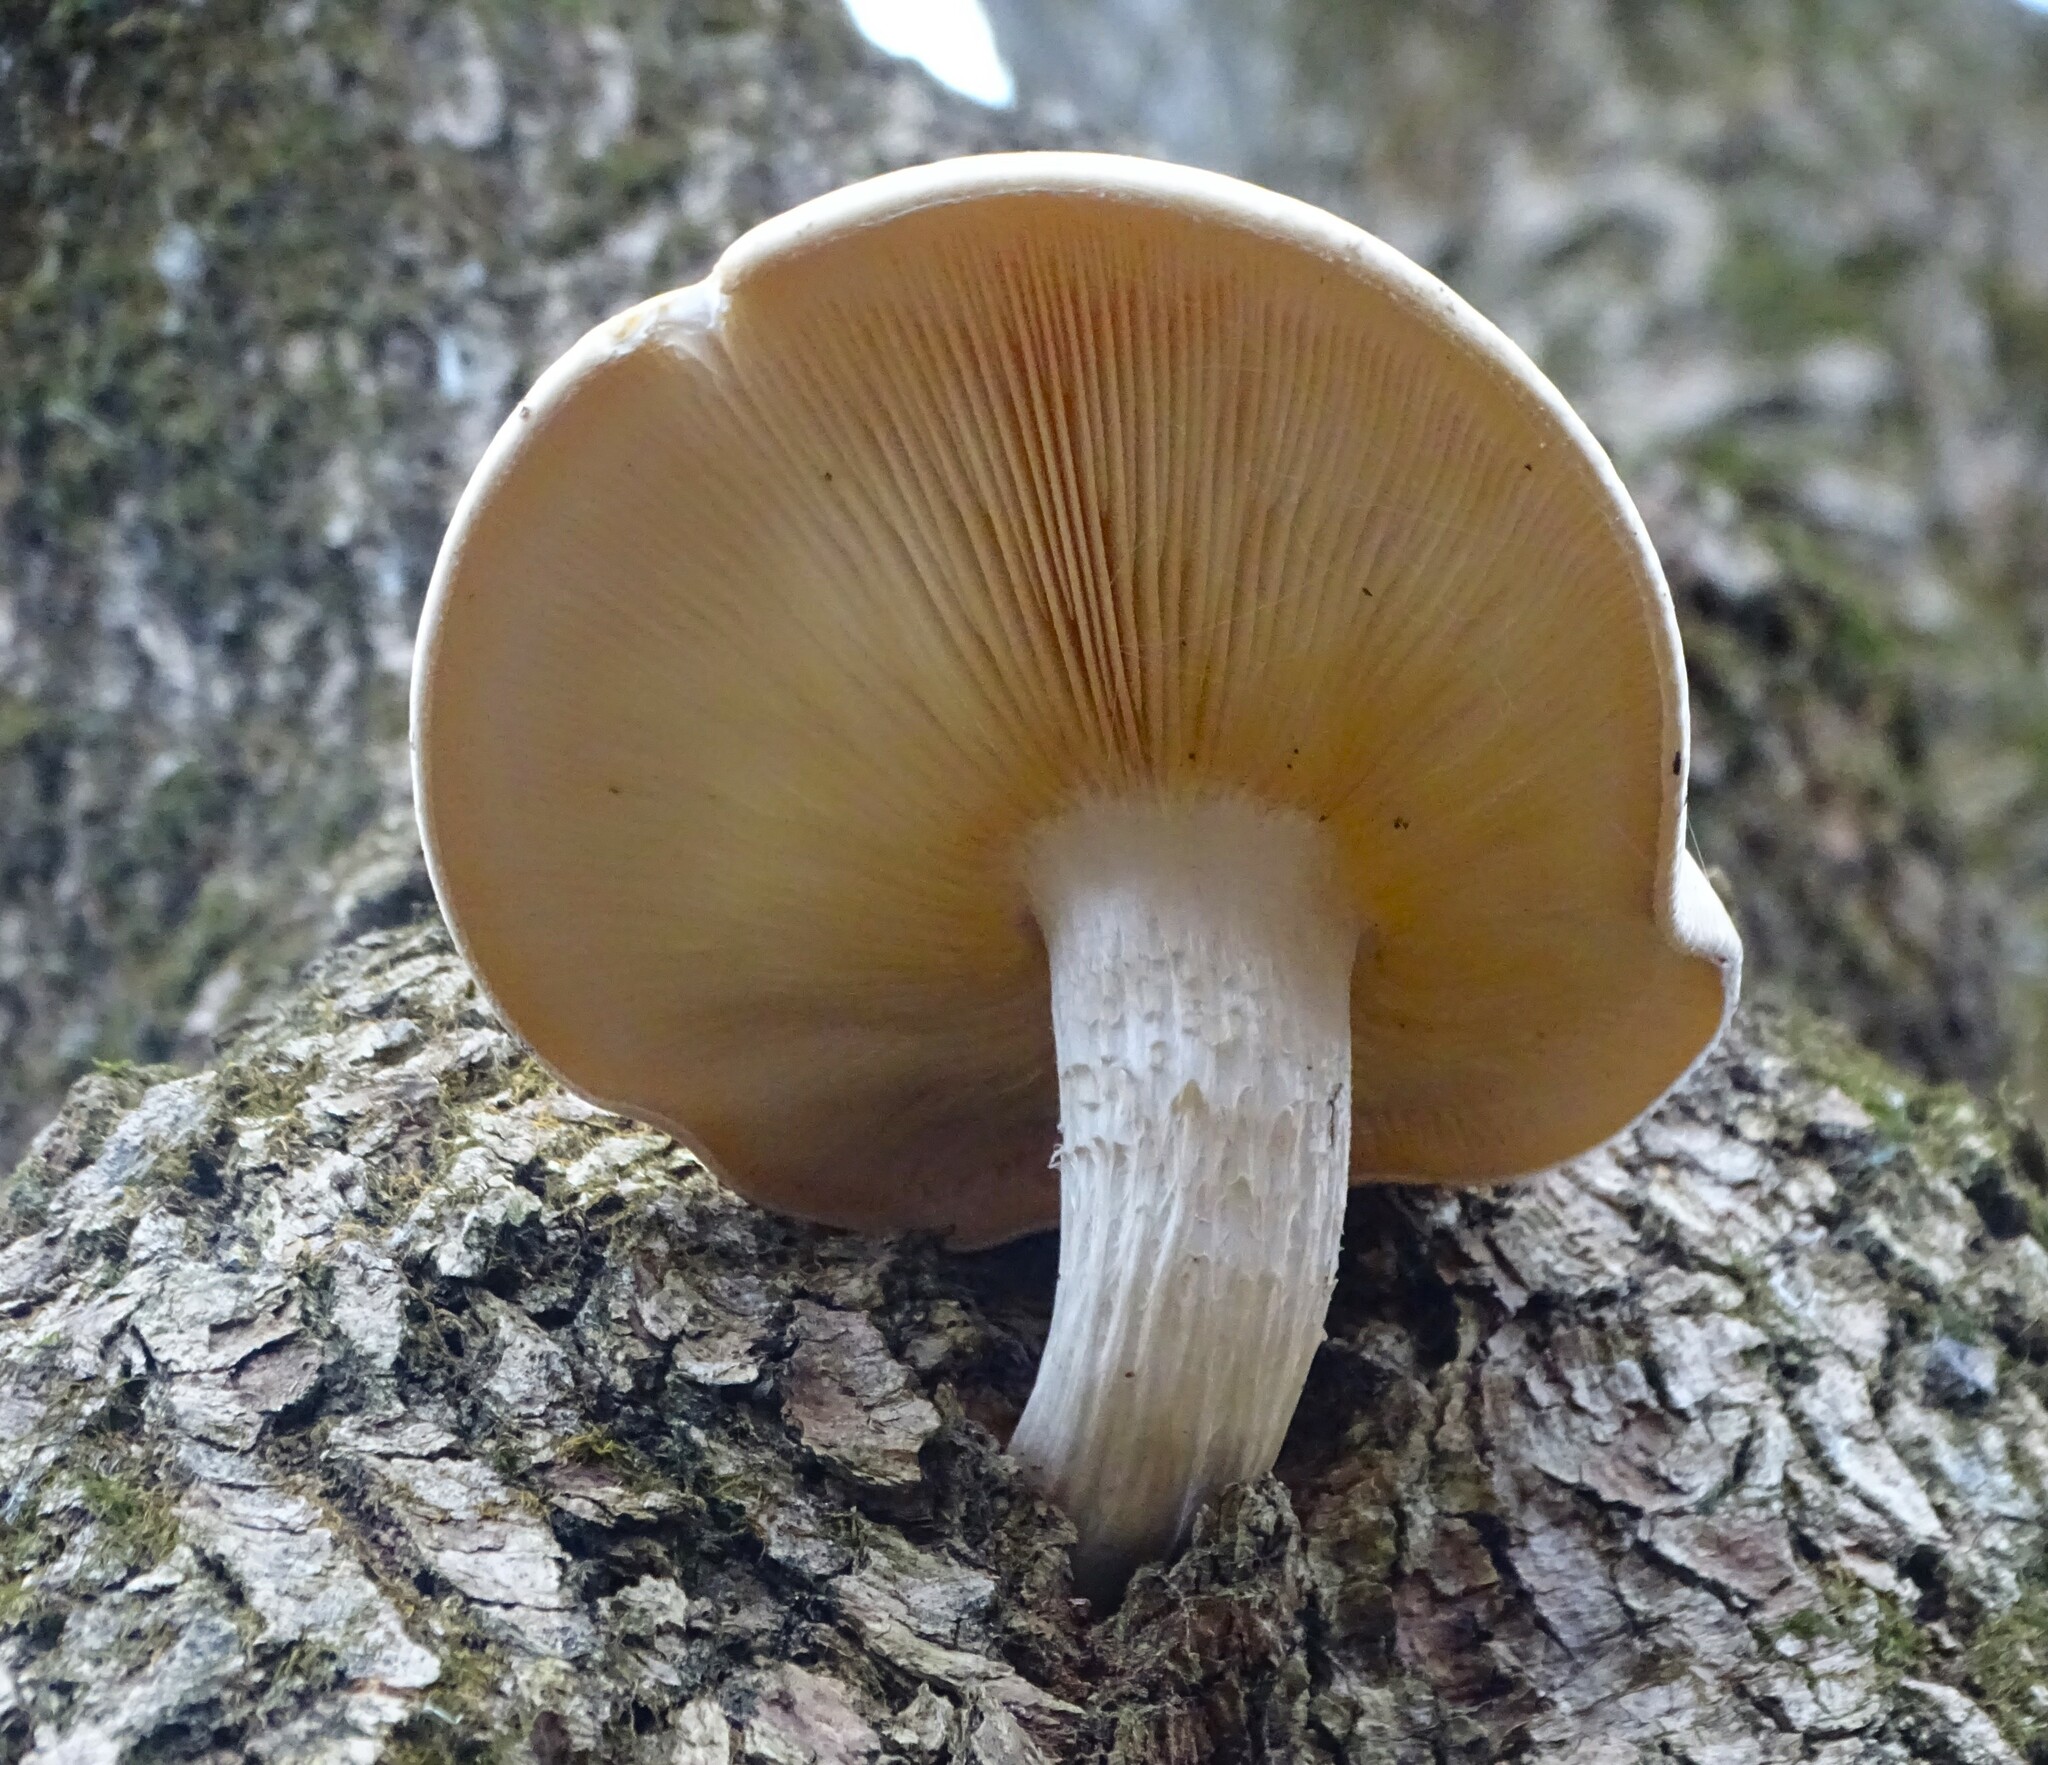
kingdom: Fungi
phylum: Basidiomycota
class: Agaricomycetes
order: Agaricales
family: Lyophyllaceae
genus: Hypsizygus
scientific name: Hypsizygus ulmarius
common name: Elm leech
